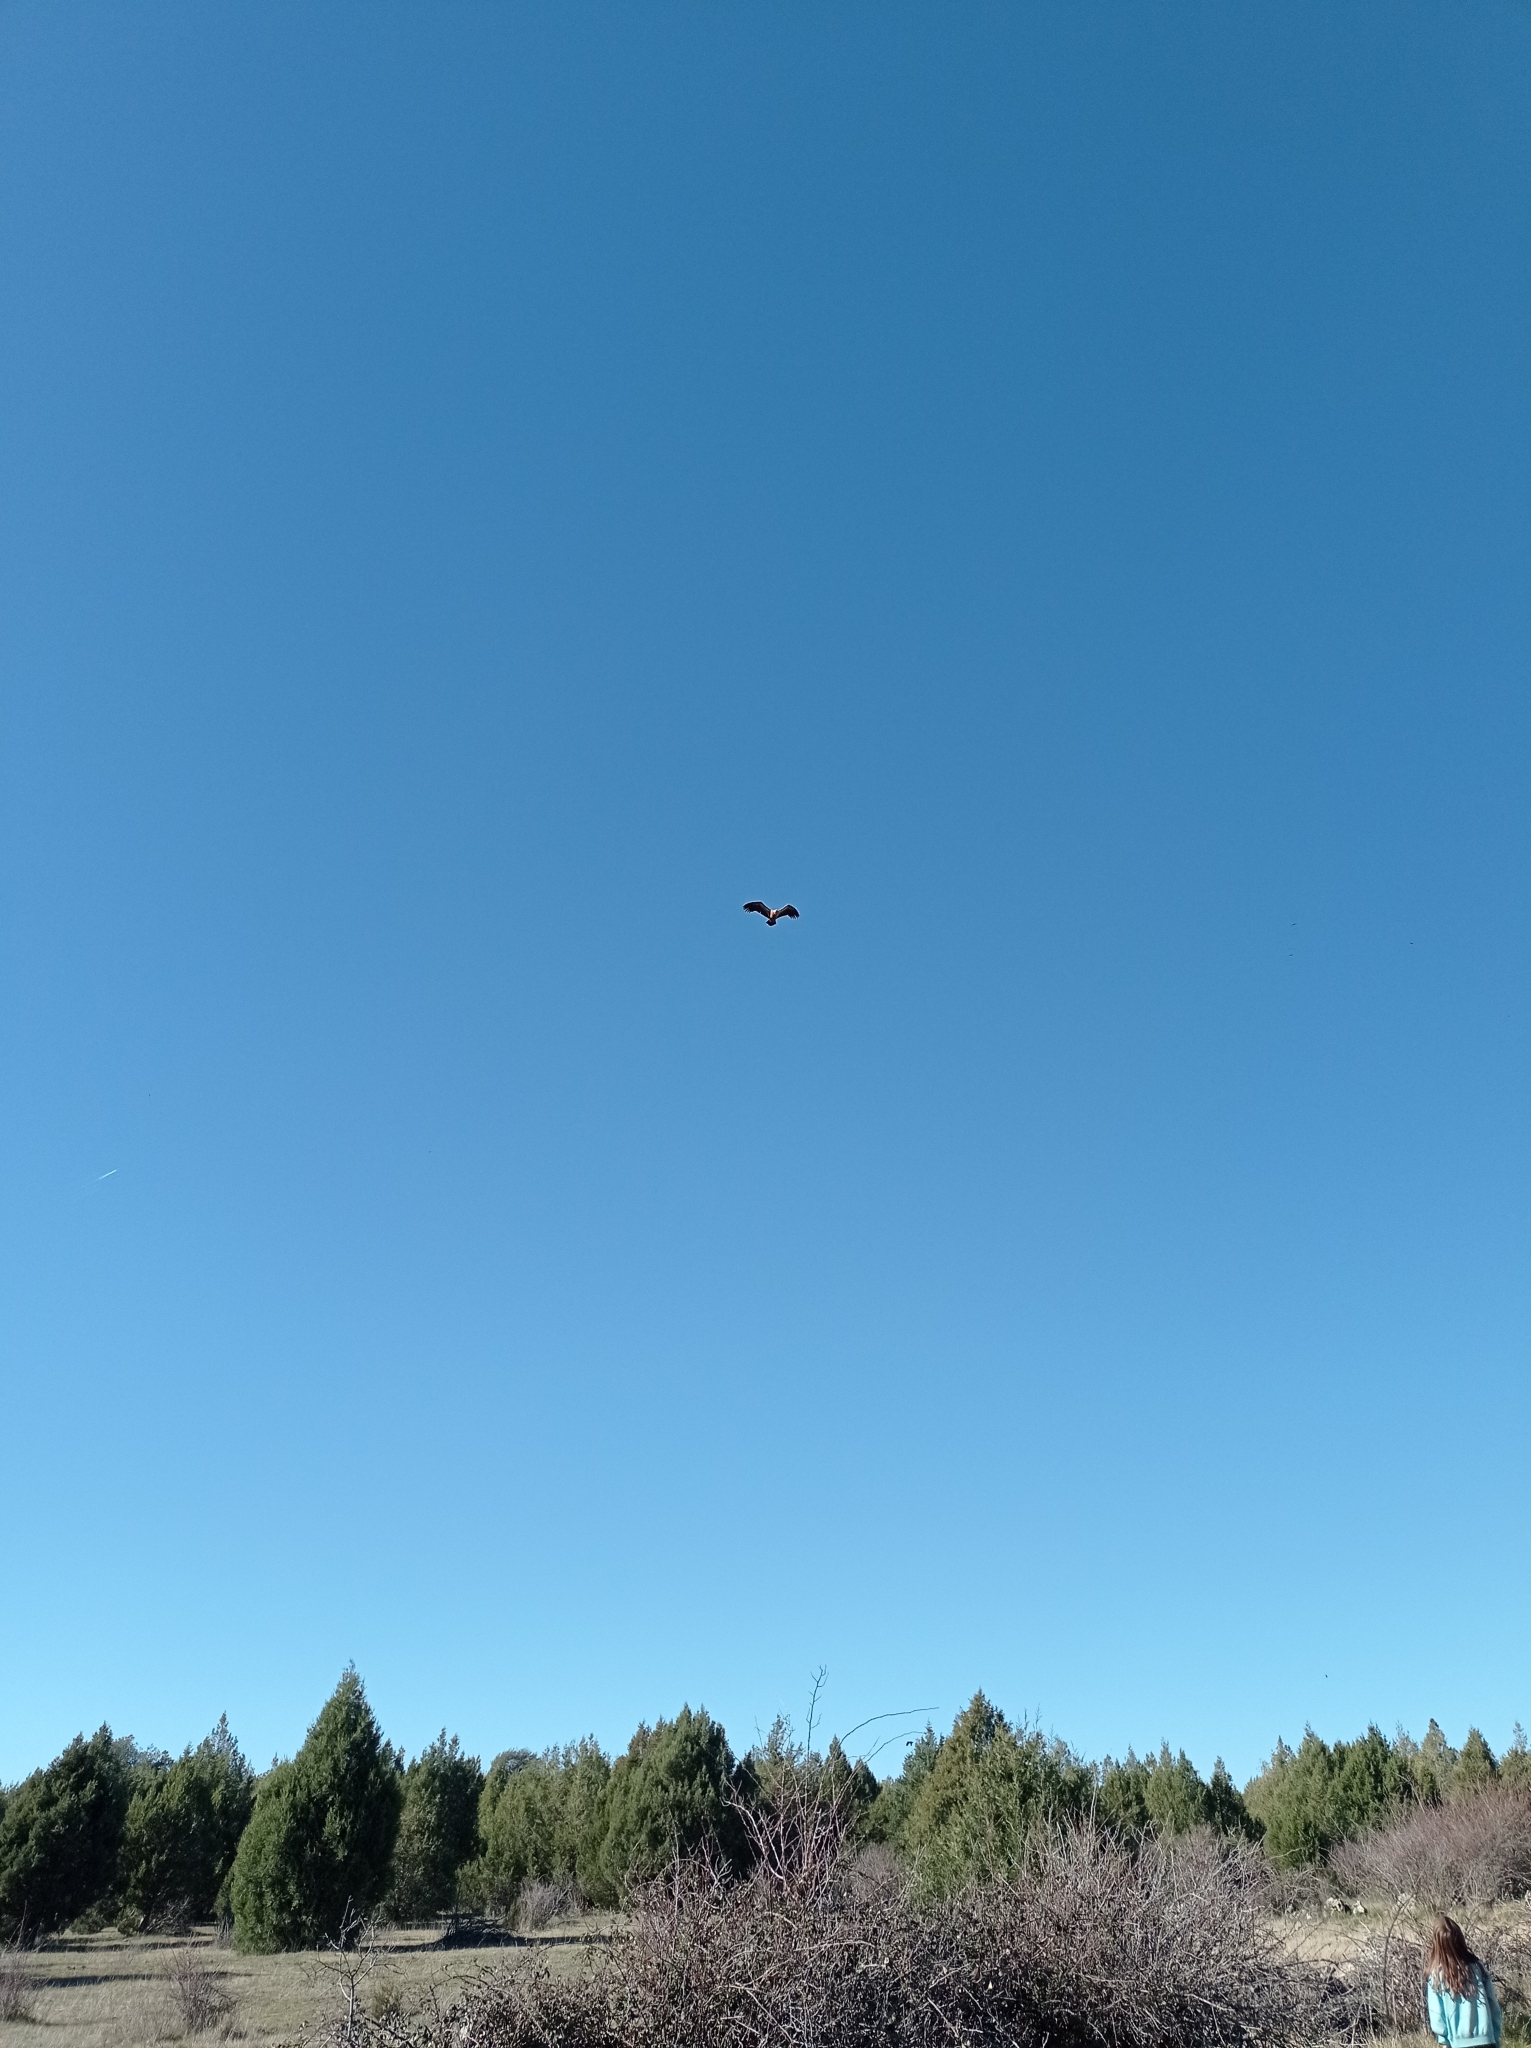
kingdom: Animalia
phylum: Chordata
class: Aves
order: Accipitriformes
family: Accipitridae
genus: Gyps
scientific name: Gyps fulvus
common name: Griffon vulture
